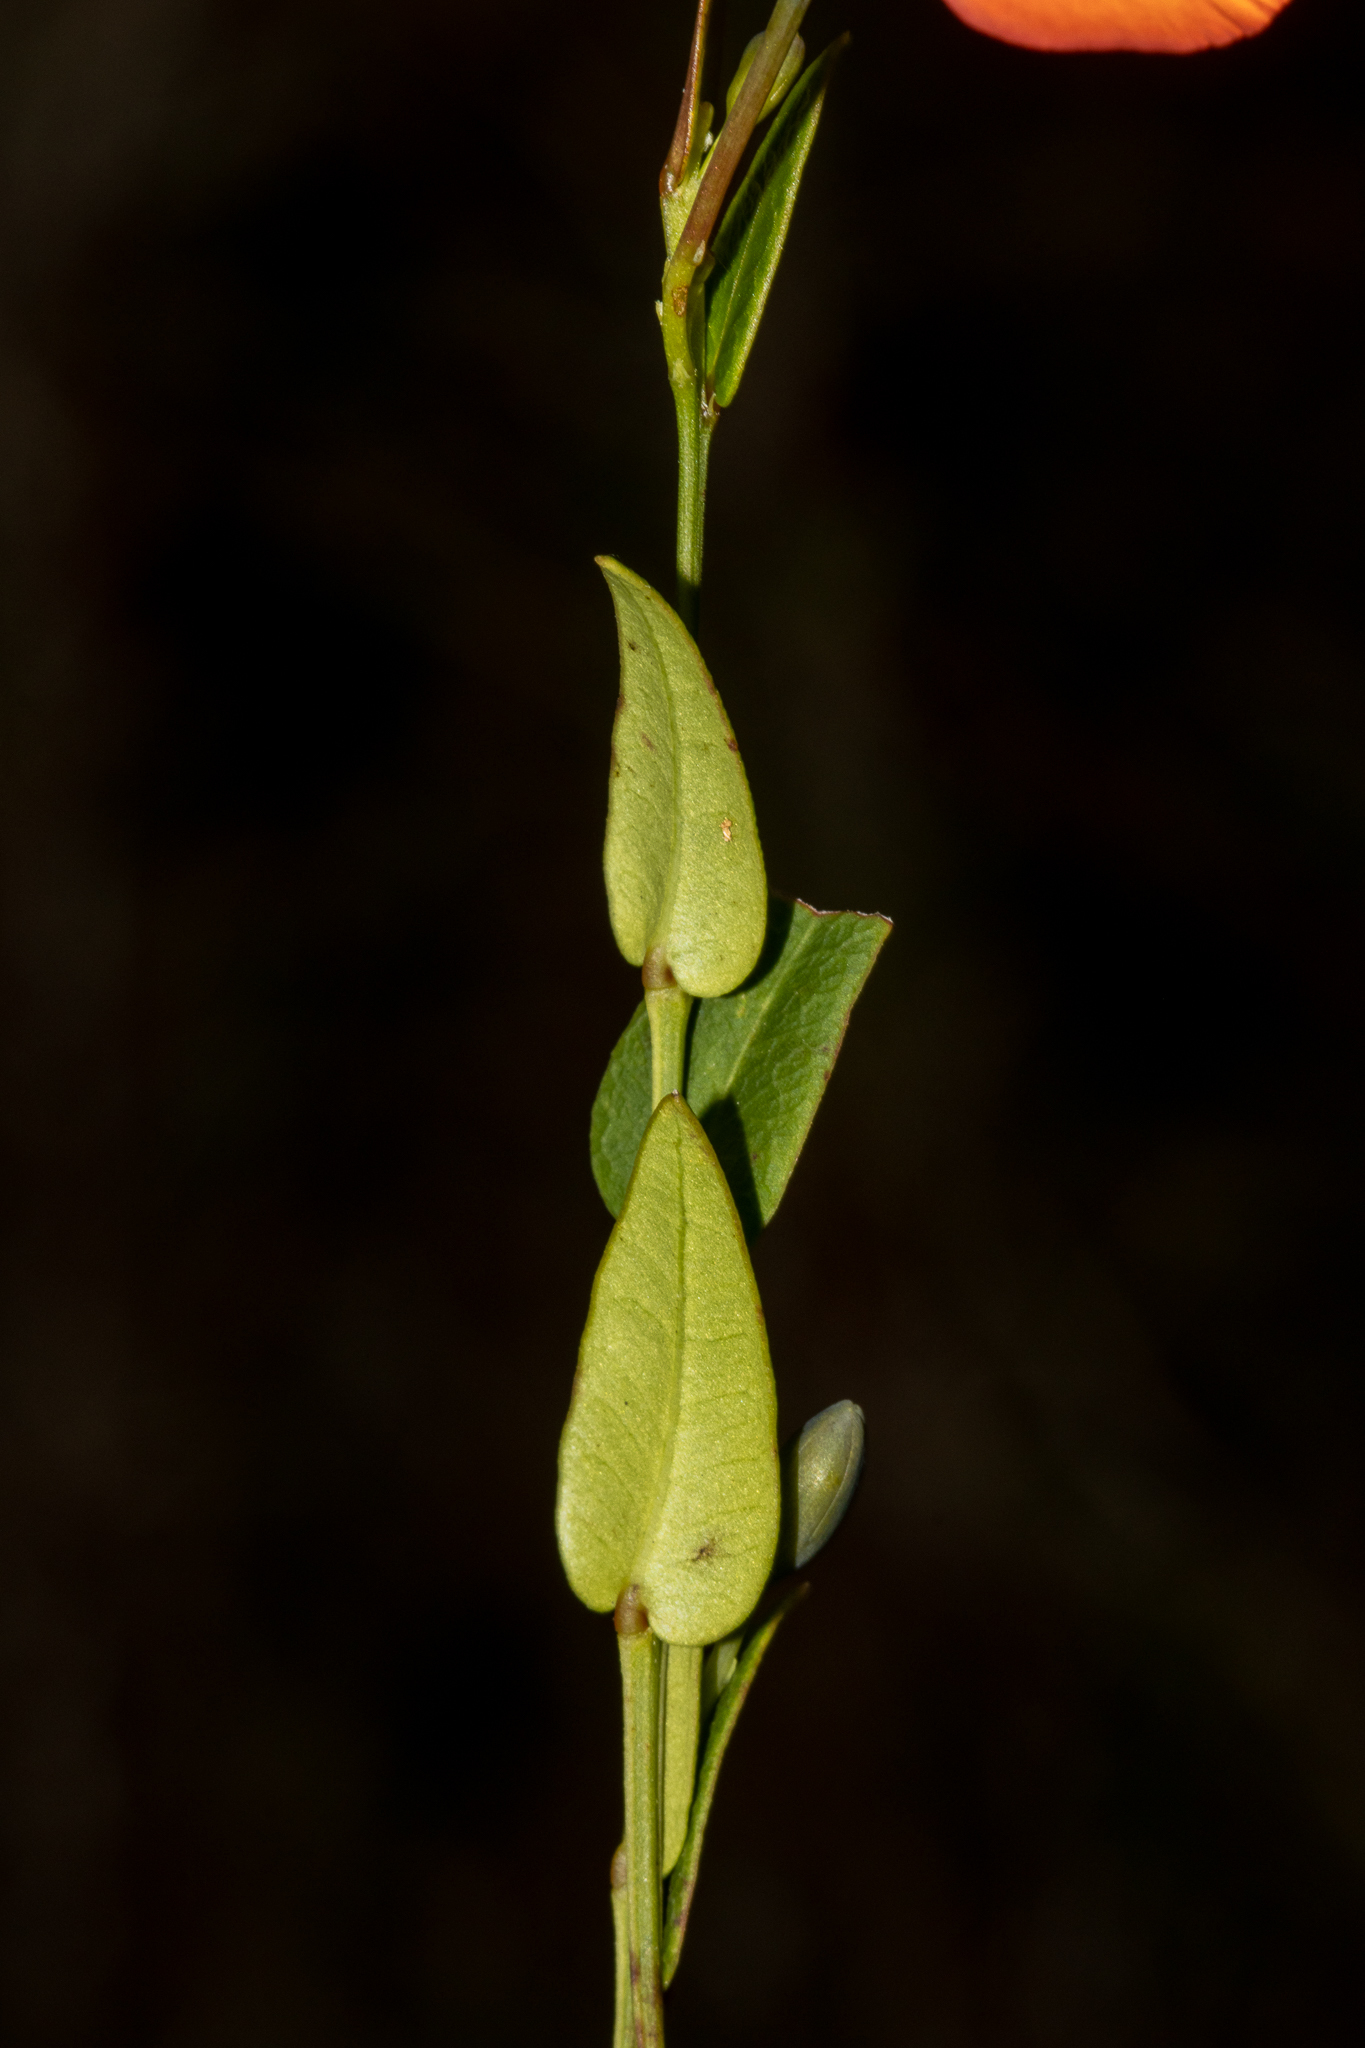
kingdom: Plantae
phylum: Tracheophyta
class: Magnoliopsida
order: Fabales
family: Fabaceae
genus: Gompholobium
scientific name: Gompholobium ovatum
